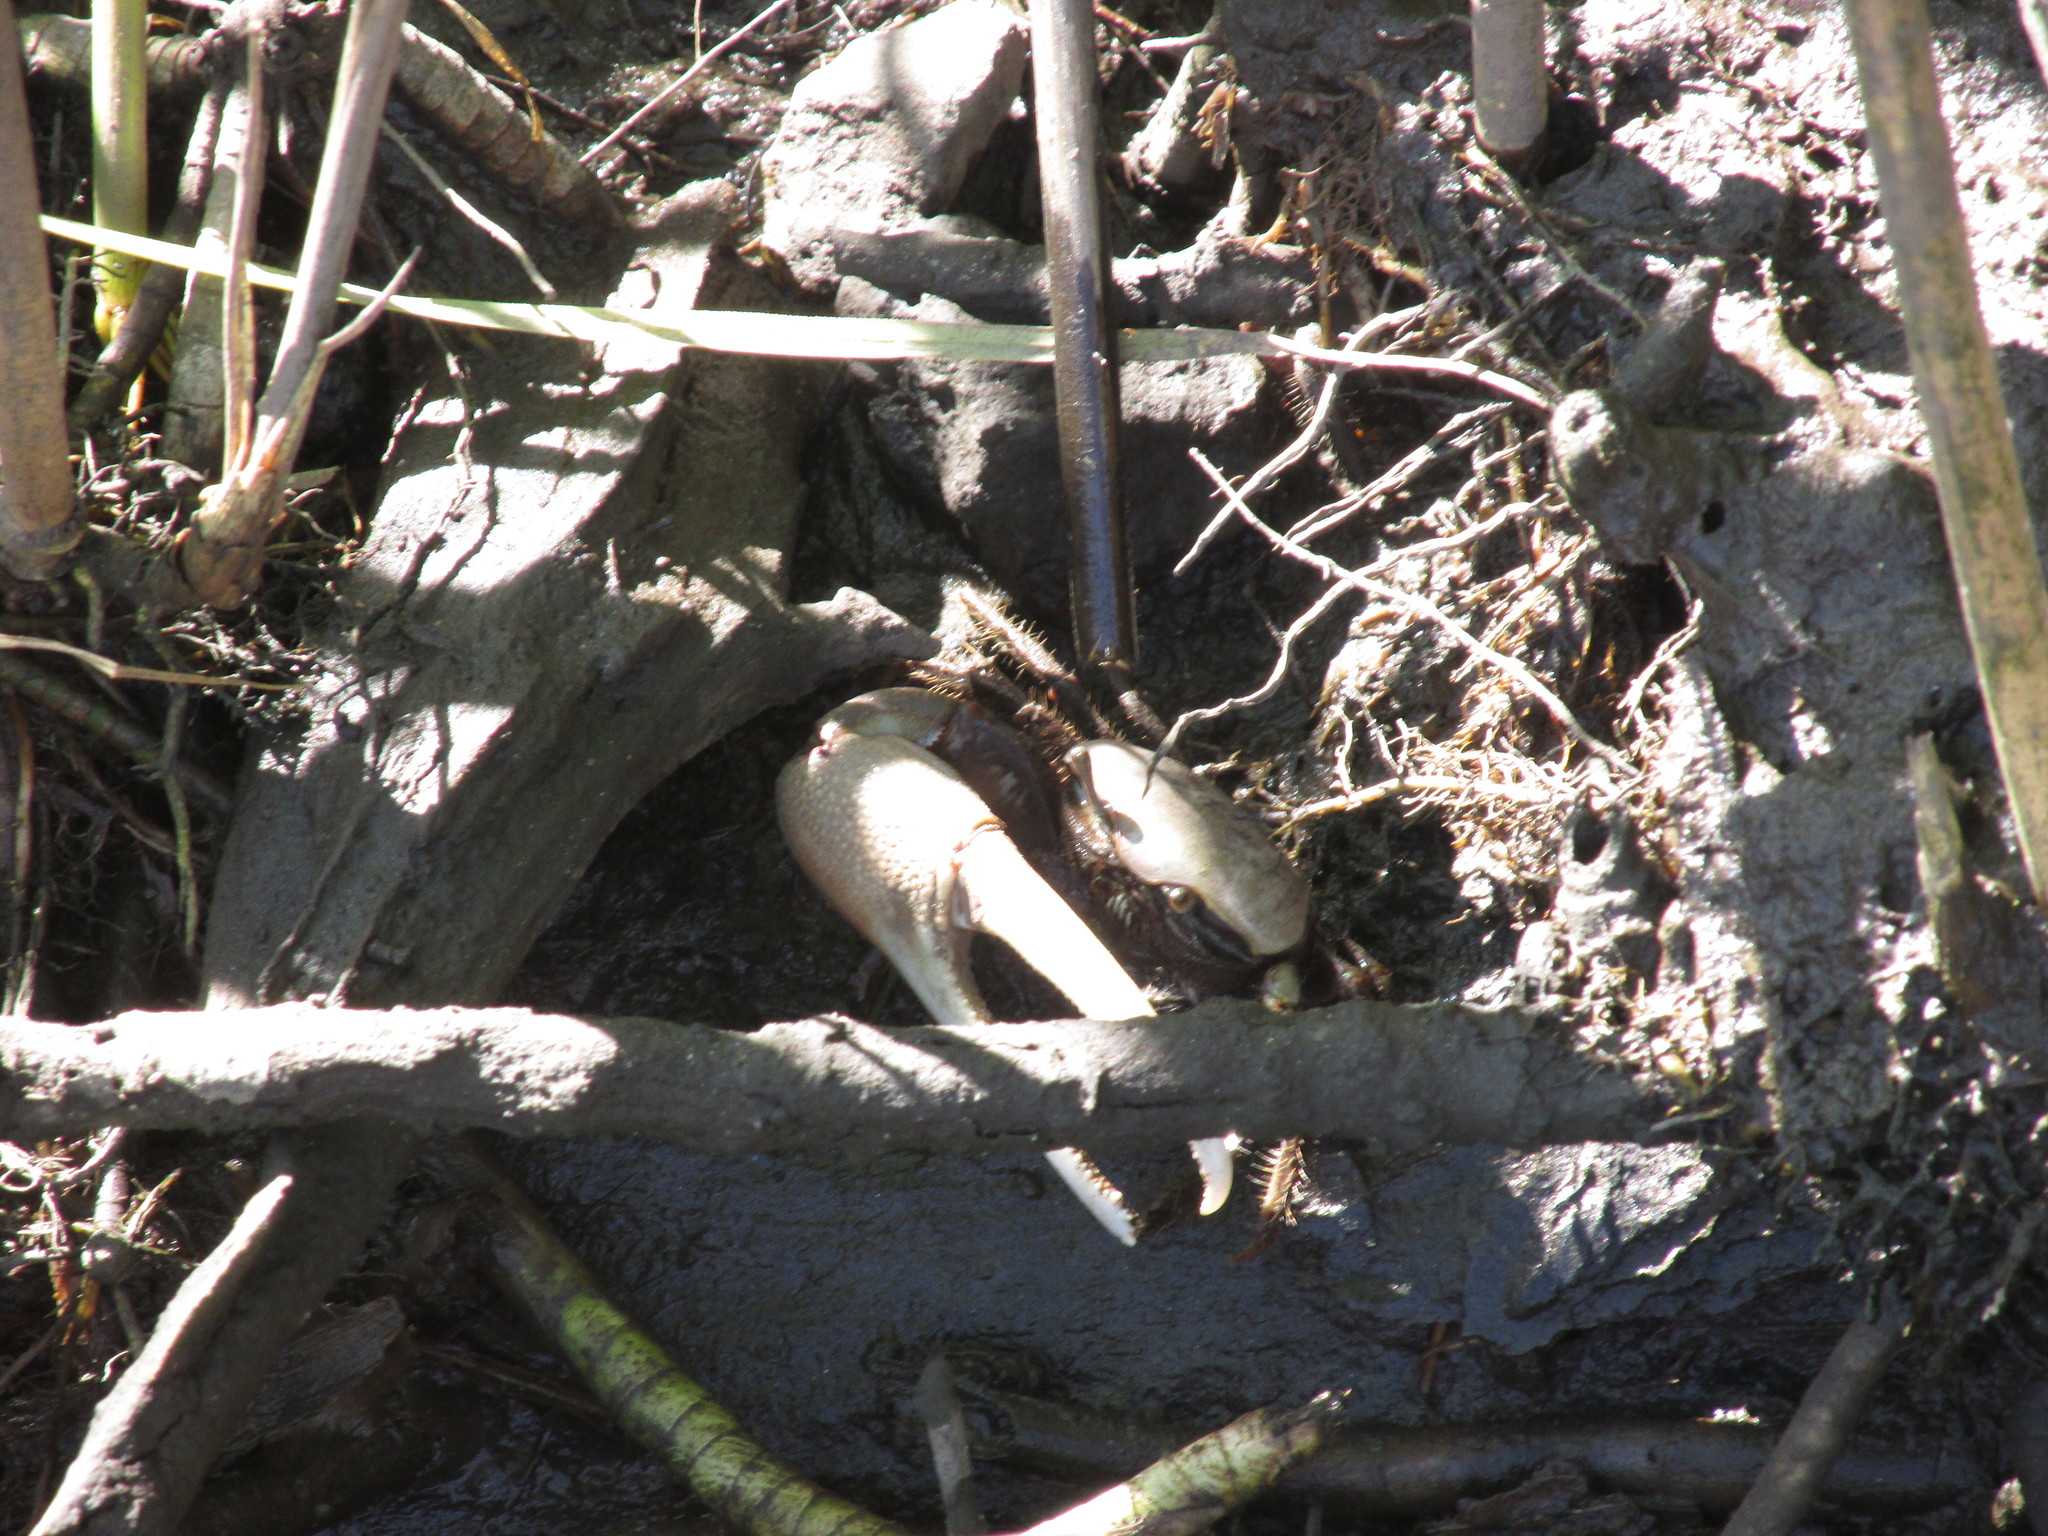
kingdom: Animalia
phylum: Arthropoda
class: Malacostraca
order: Decapoda
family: Ocypodidae
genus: Minuca
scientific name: Minuca minax
